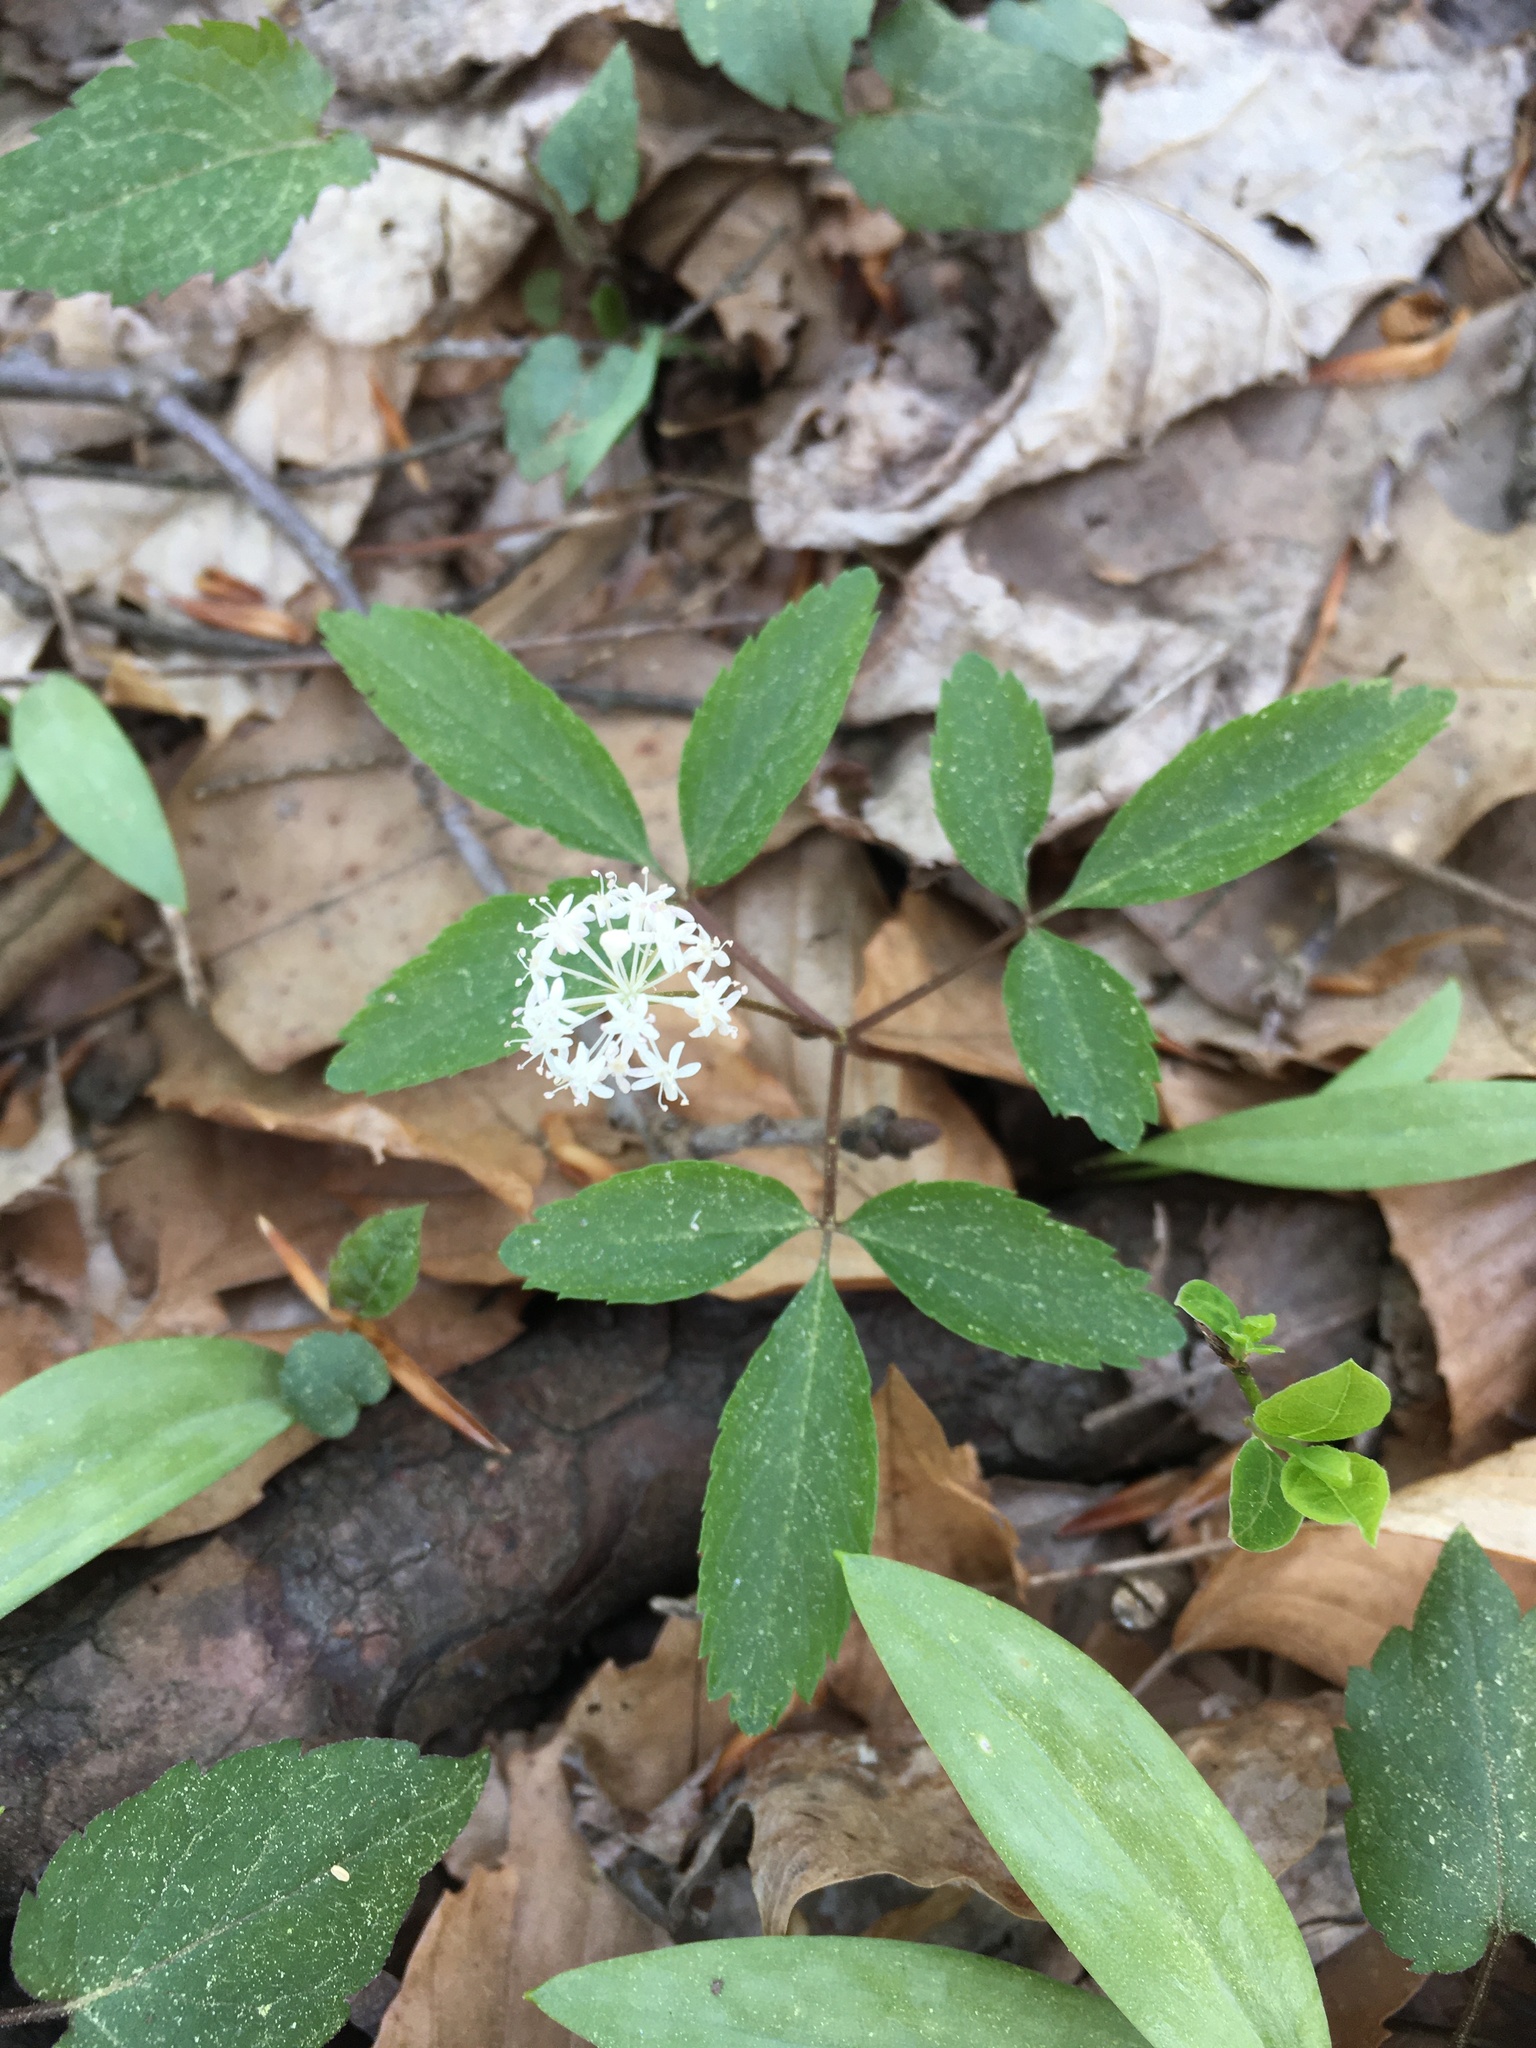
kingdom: Plantae
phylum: Tracheophyta
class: Magnoliopsida
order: Apiales
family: Araliaceae
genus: Panax
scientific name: Panax trifolius
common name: Dwarf ginseng
